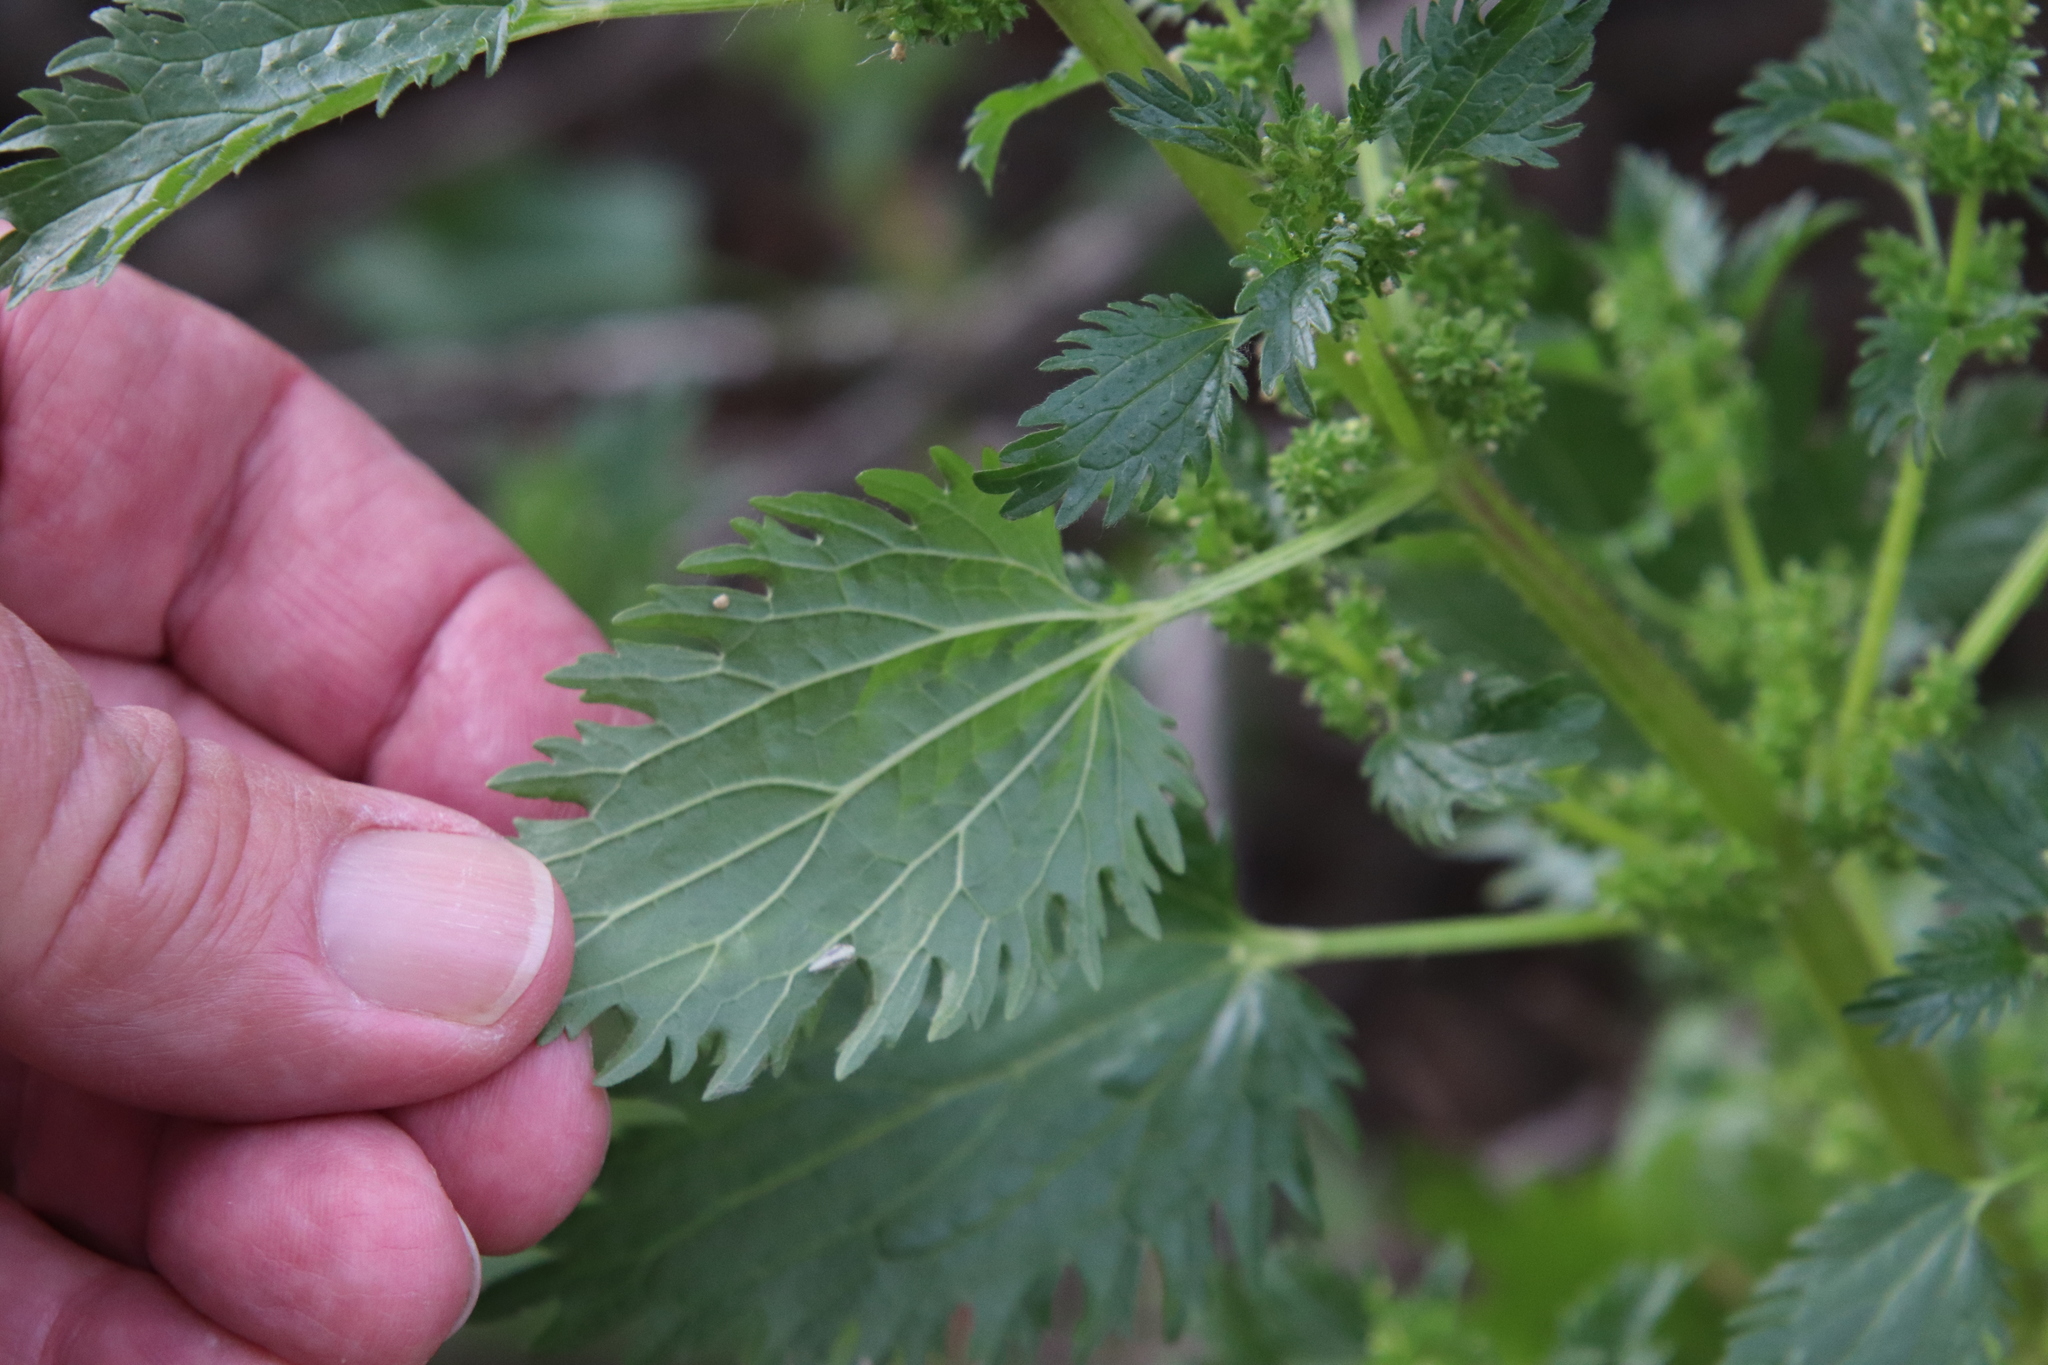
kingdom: Plantae
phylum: Tracheophyta
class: Magnoliopsida
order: Rosales
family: Urticaceae
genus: Urtica
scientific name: Urtica urens
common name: Dwarf nettle
